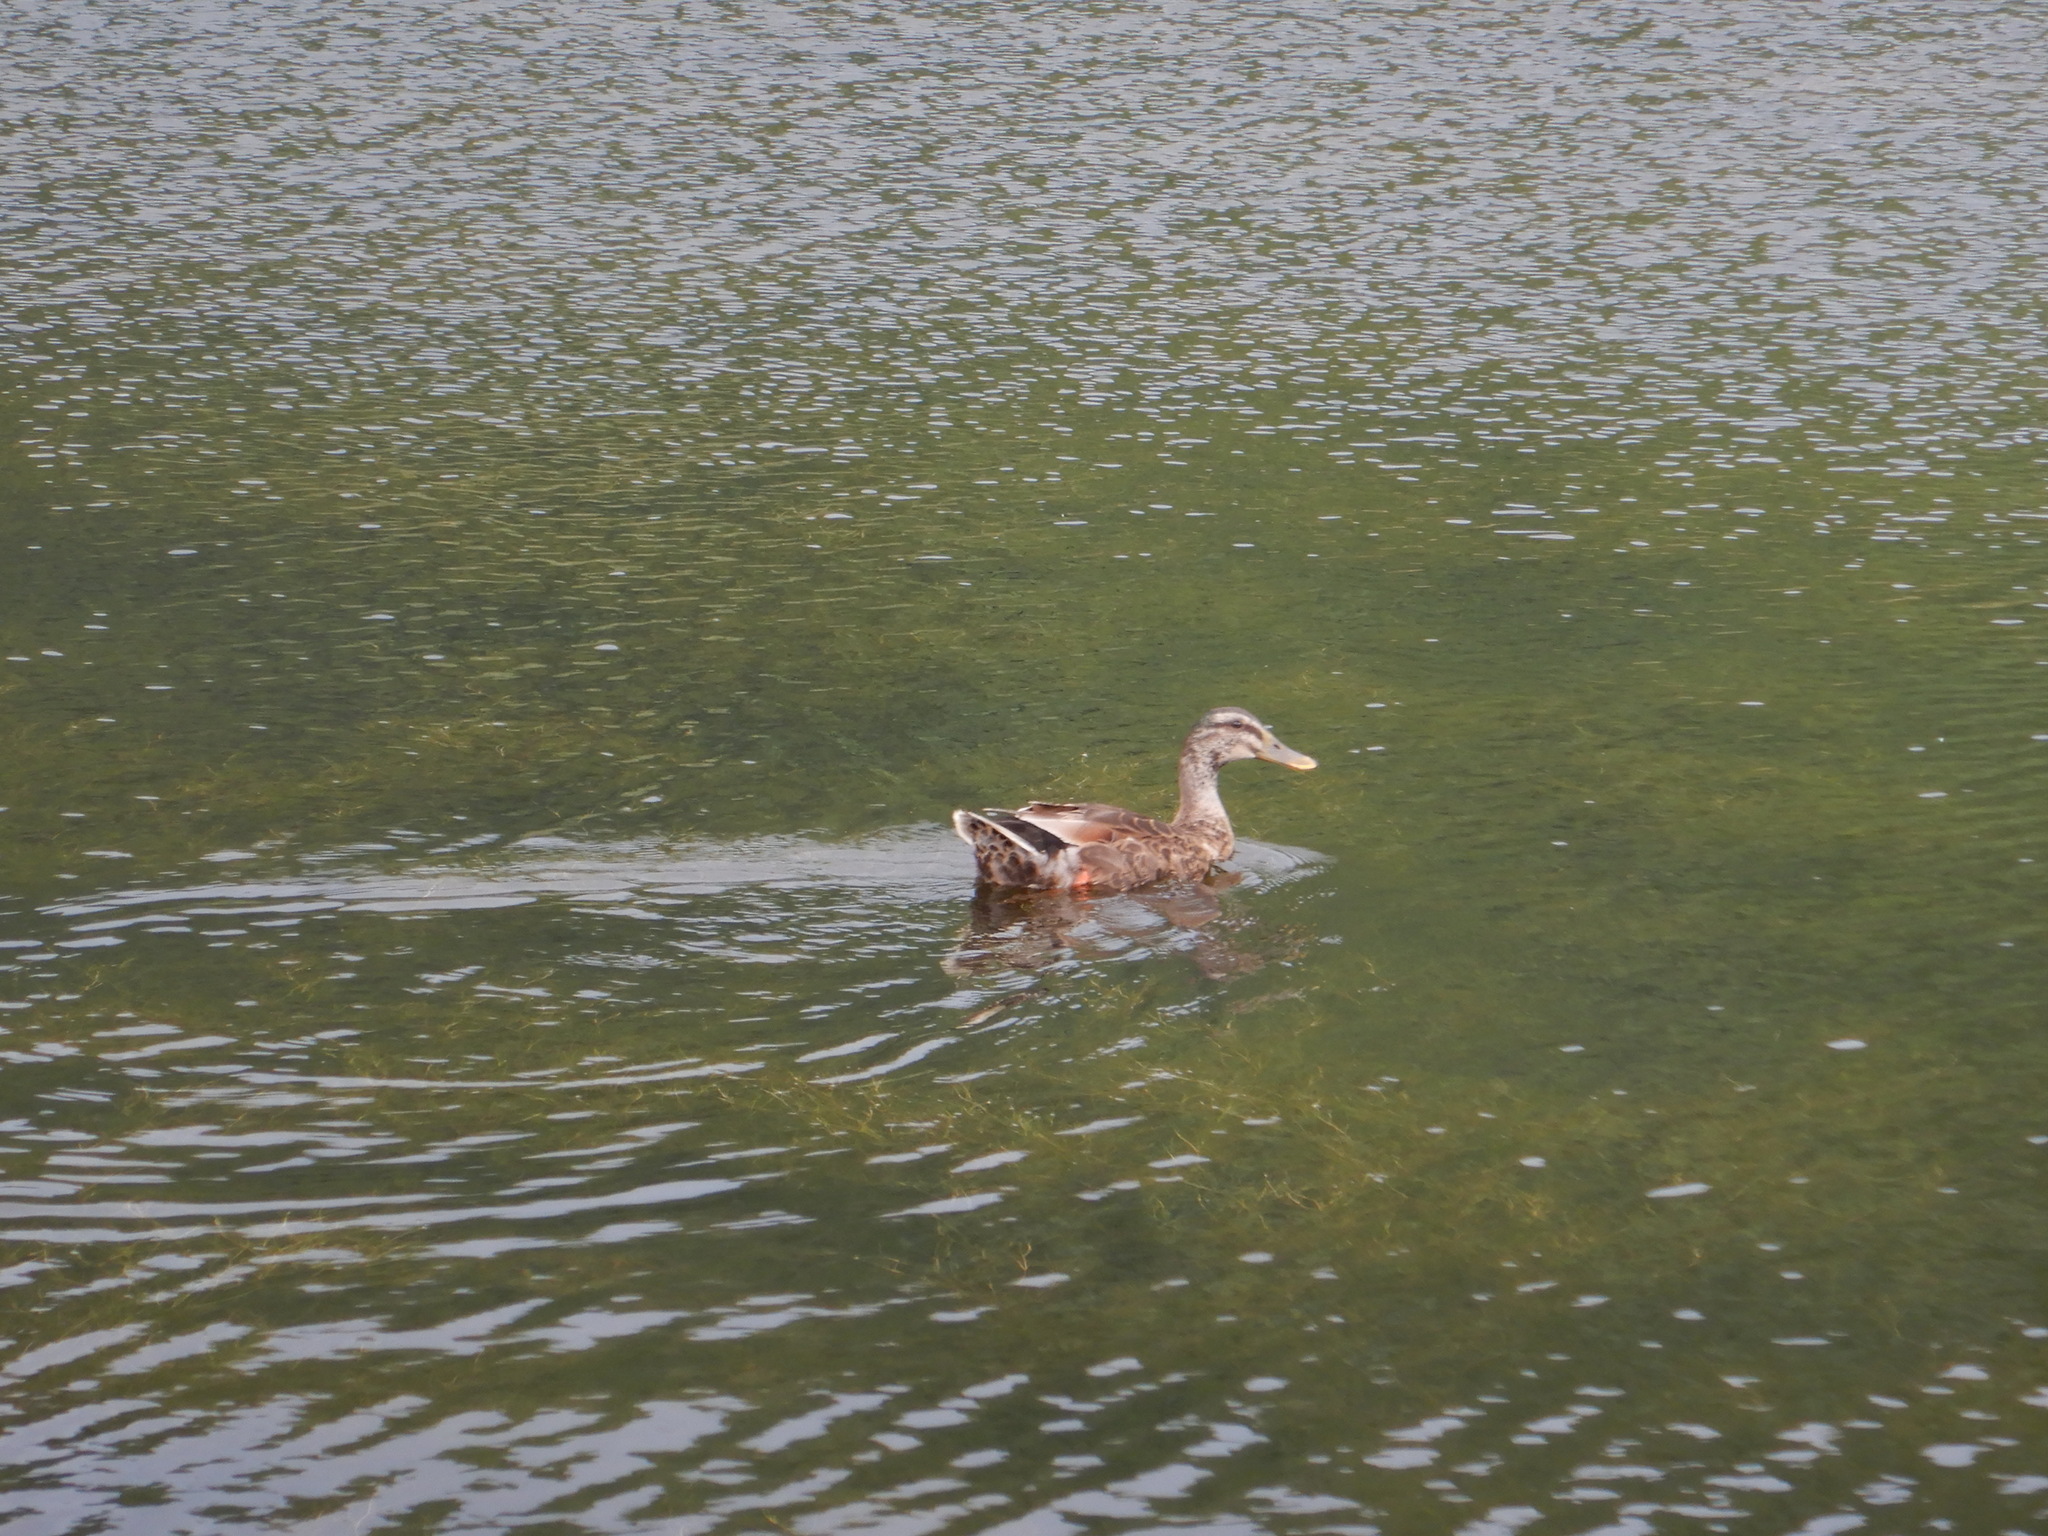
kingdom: Animalia
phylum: Chordata
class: Aves
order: Anseriformes
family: Anatidae
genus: Anas
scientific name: Anas platyrhynchos
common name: Mallard
